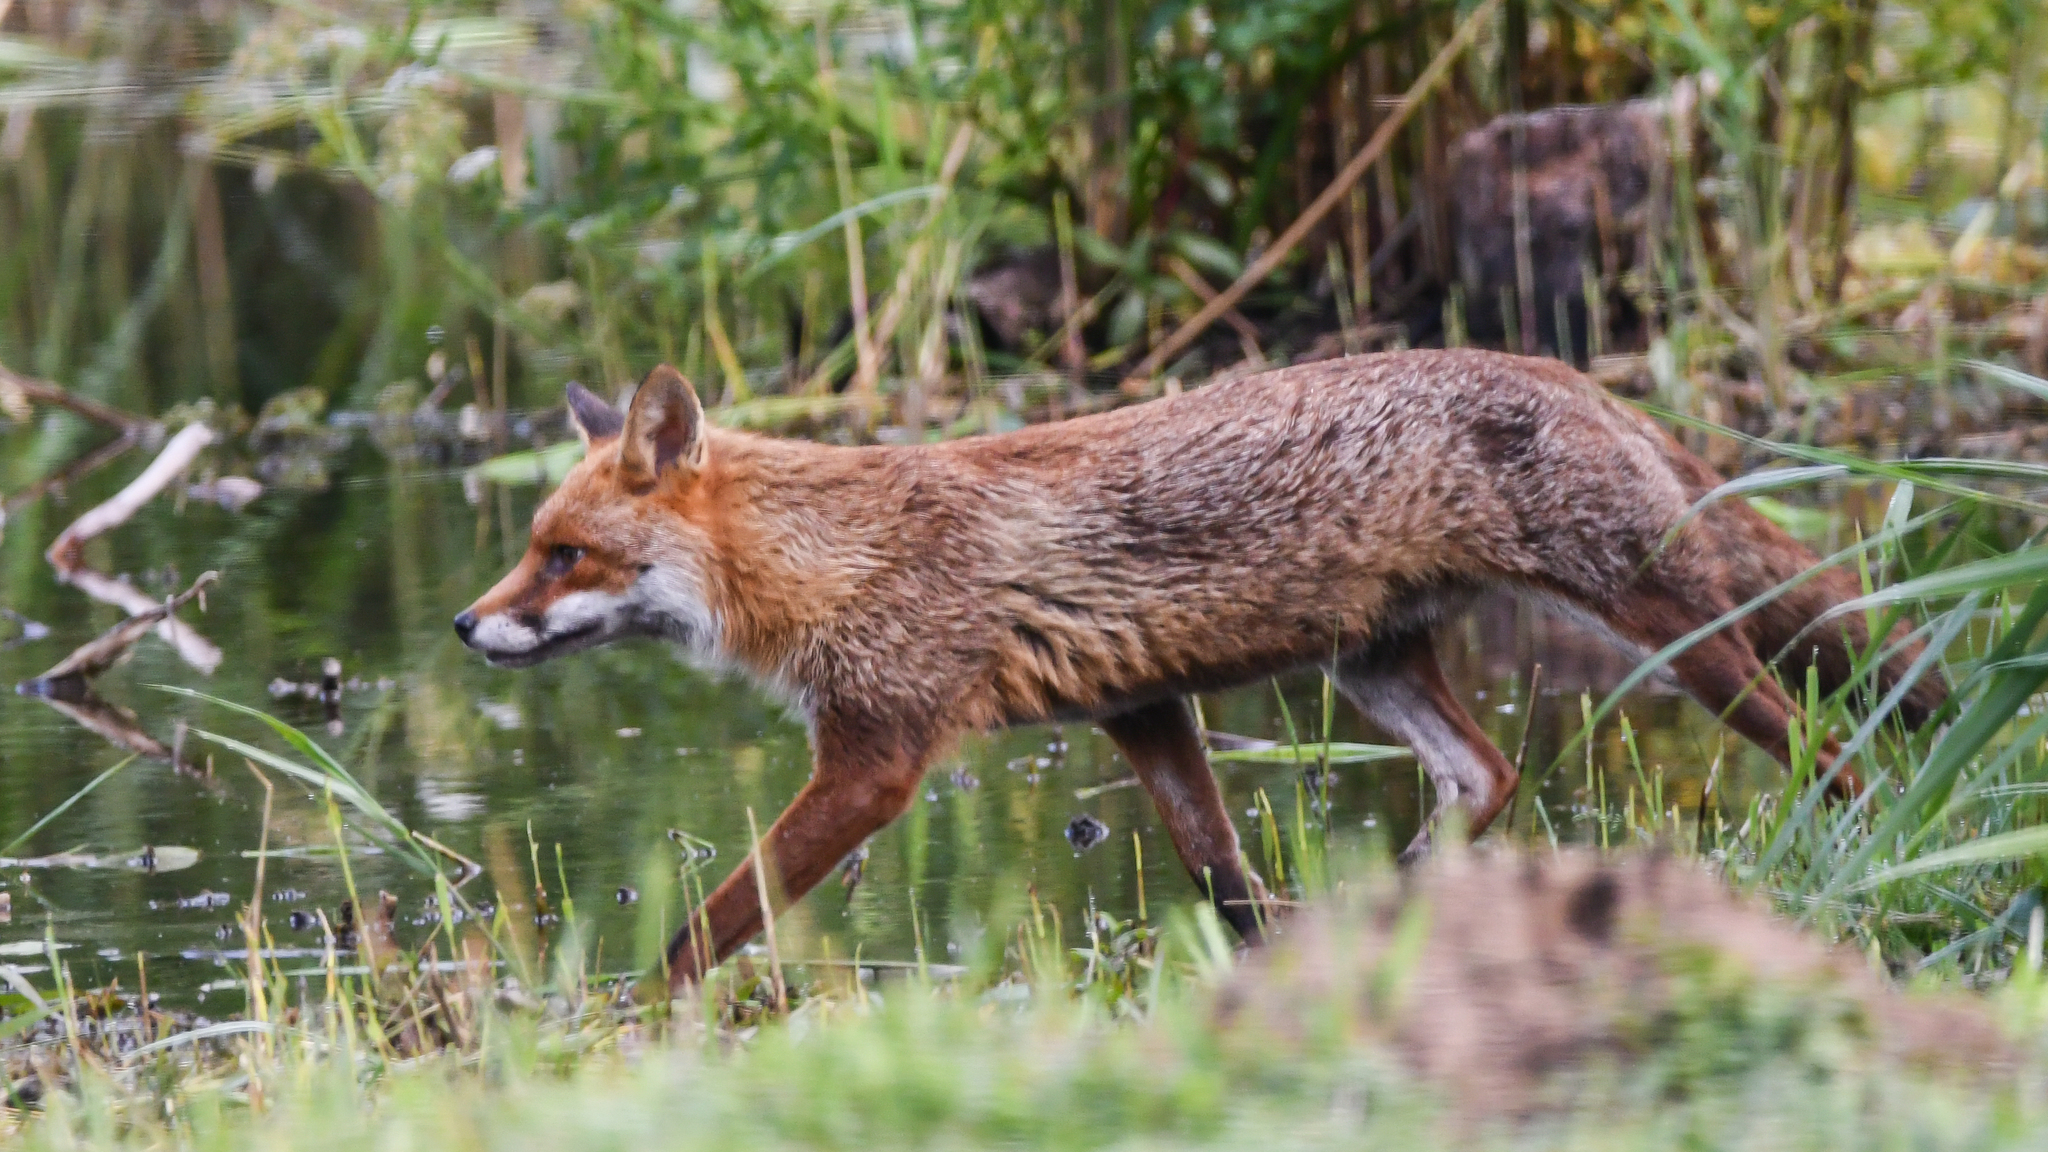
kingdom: Animalia
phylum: Chordata
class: Mammalia
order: Carnivora
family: Canidae
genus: Vulpes
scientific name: Vulpes vulpes
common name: Red fox
